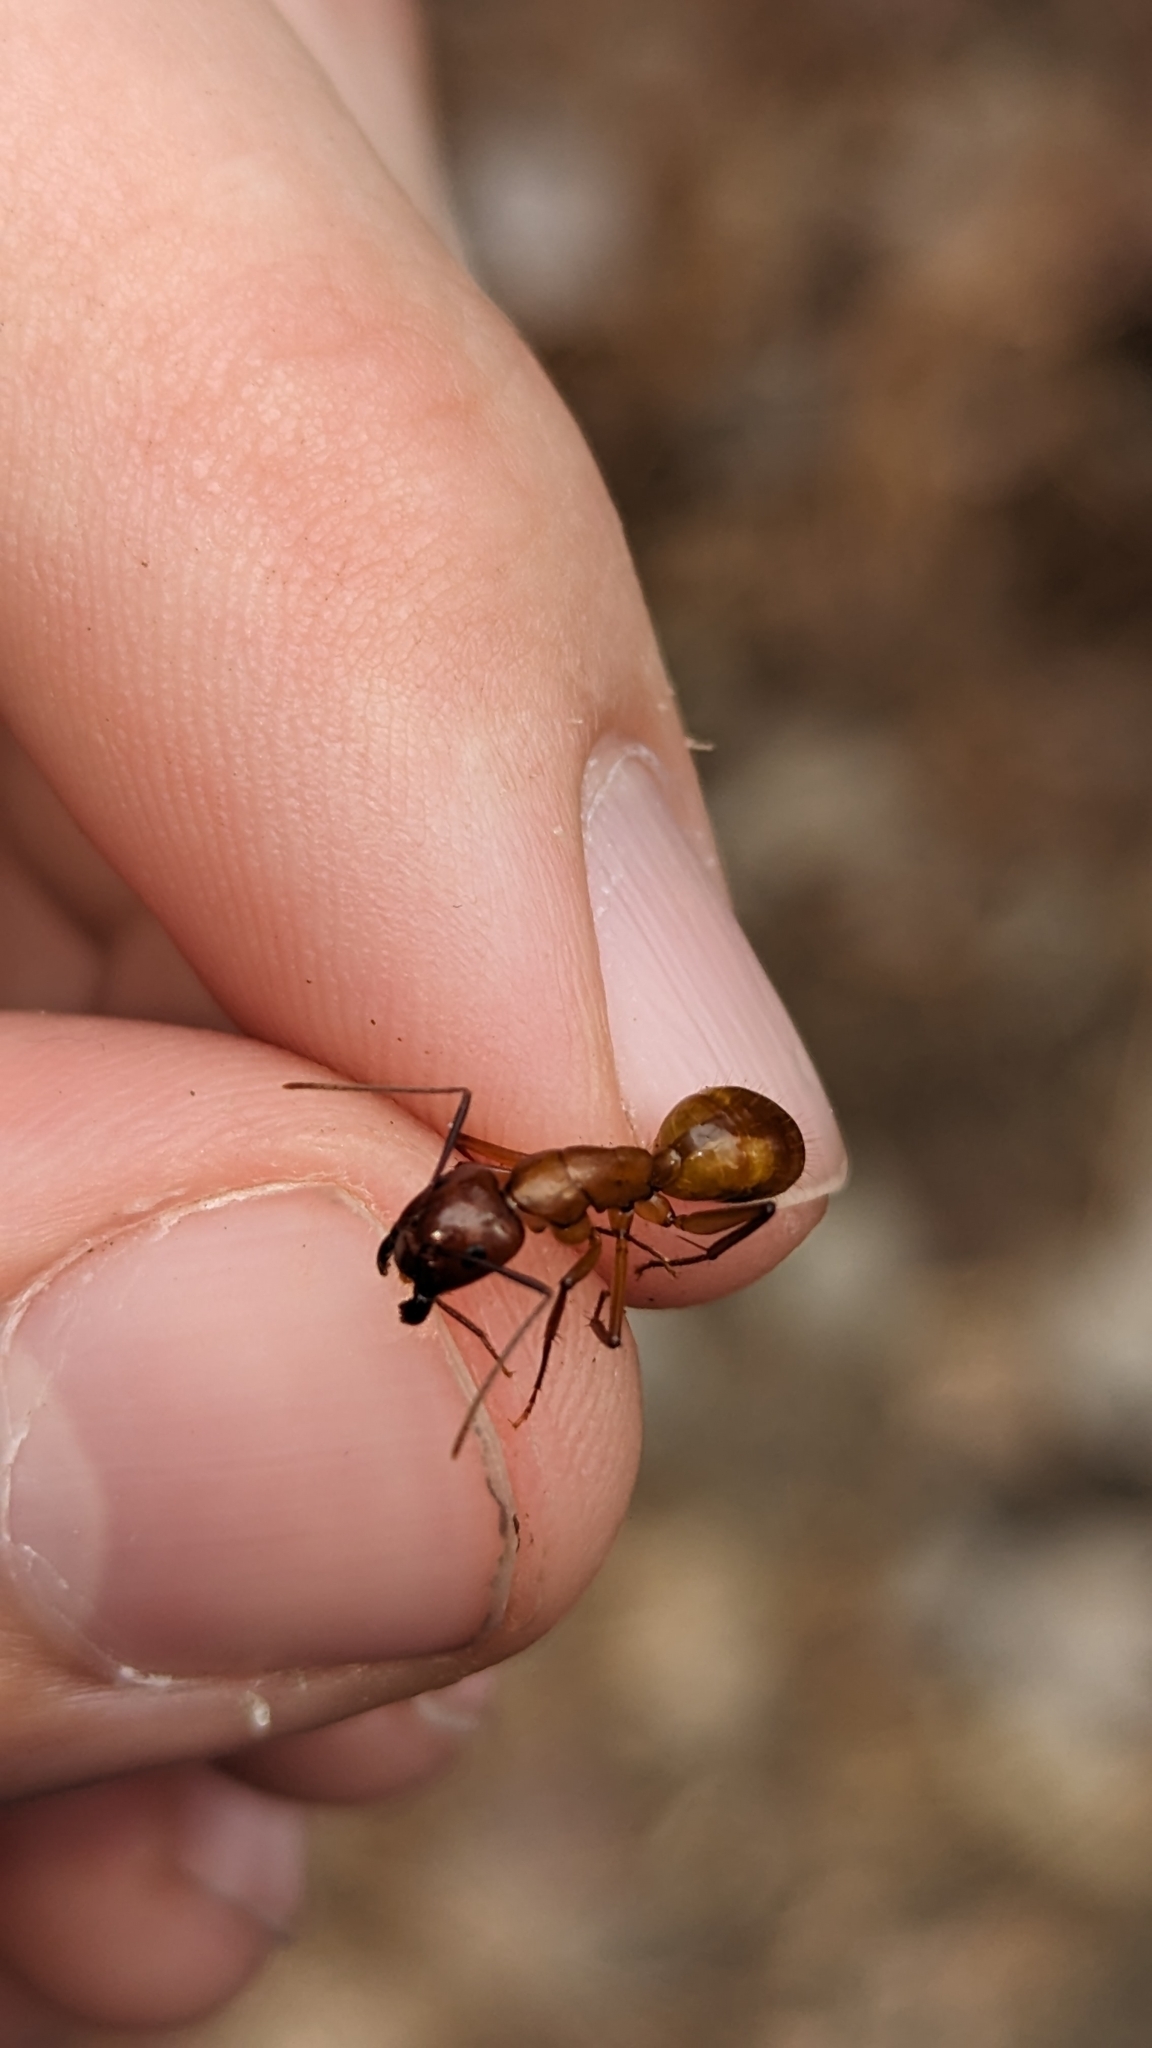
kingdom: Animalia
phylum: Arthropoda
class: Insecta
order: Hymenoptera
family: Formicidae
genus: Camponotus
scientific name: Camponotus castaneus
